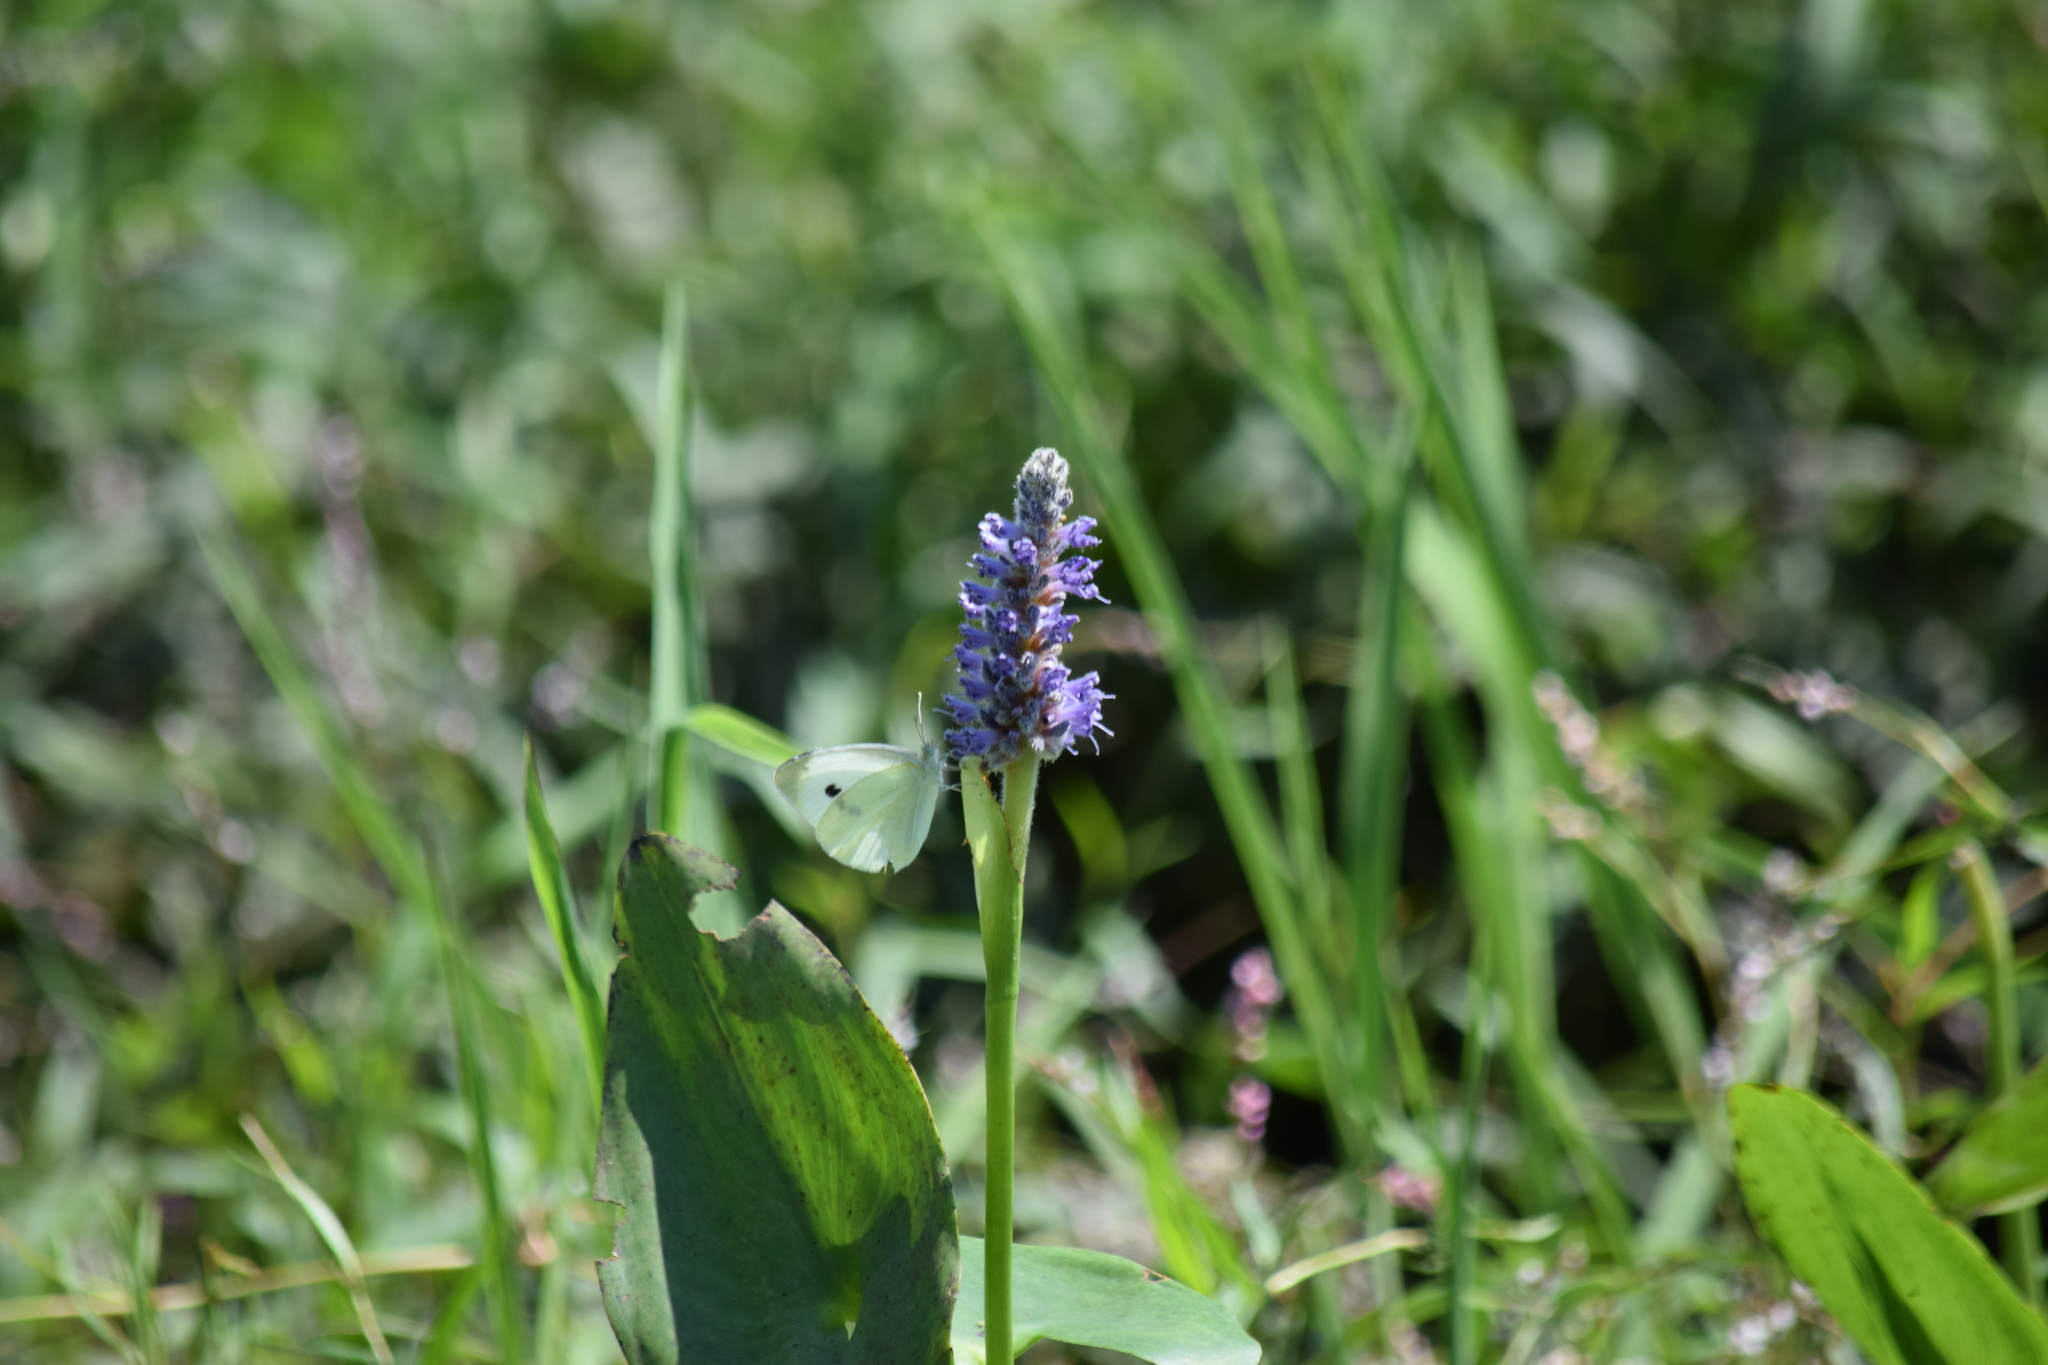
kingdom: Animalia
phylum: Arthropoda
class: Insecta
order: Lepidoptera
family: Pieridae
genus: Pieris
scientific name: Pieris rapae
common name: Small white
